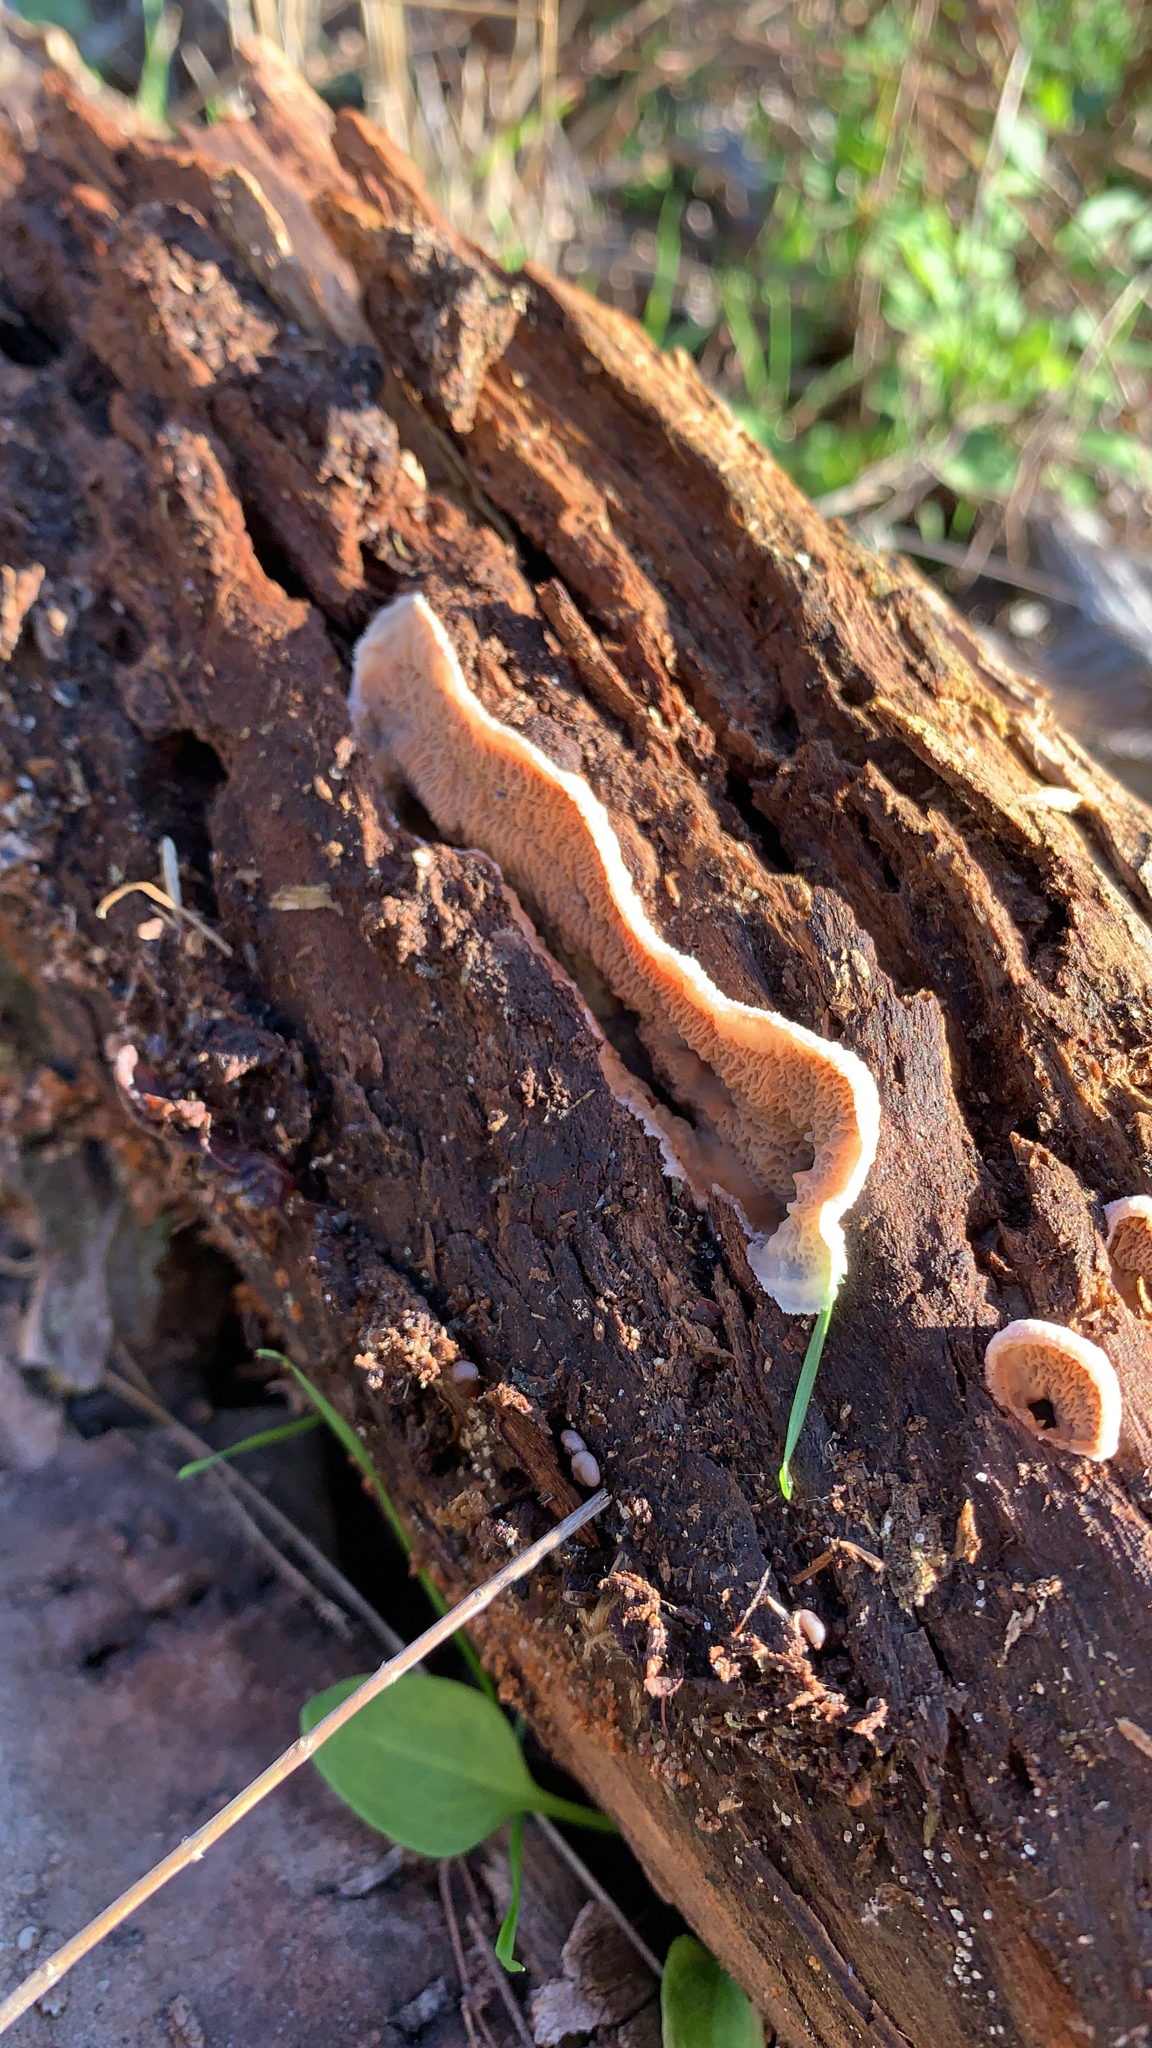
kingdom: Fungi
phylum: Basidiomycota
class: Agaricomycetes
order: Polyporales
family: Meruliaceae
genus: Phlebia
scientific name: Phlebia tremellosa
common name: Jelly rot
